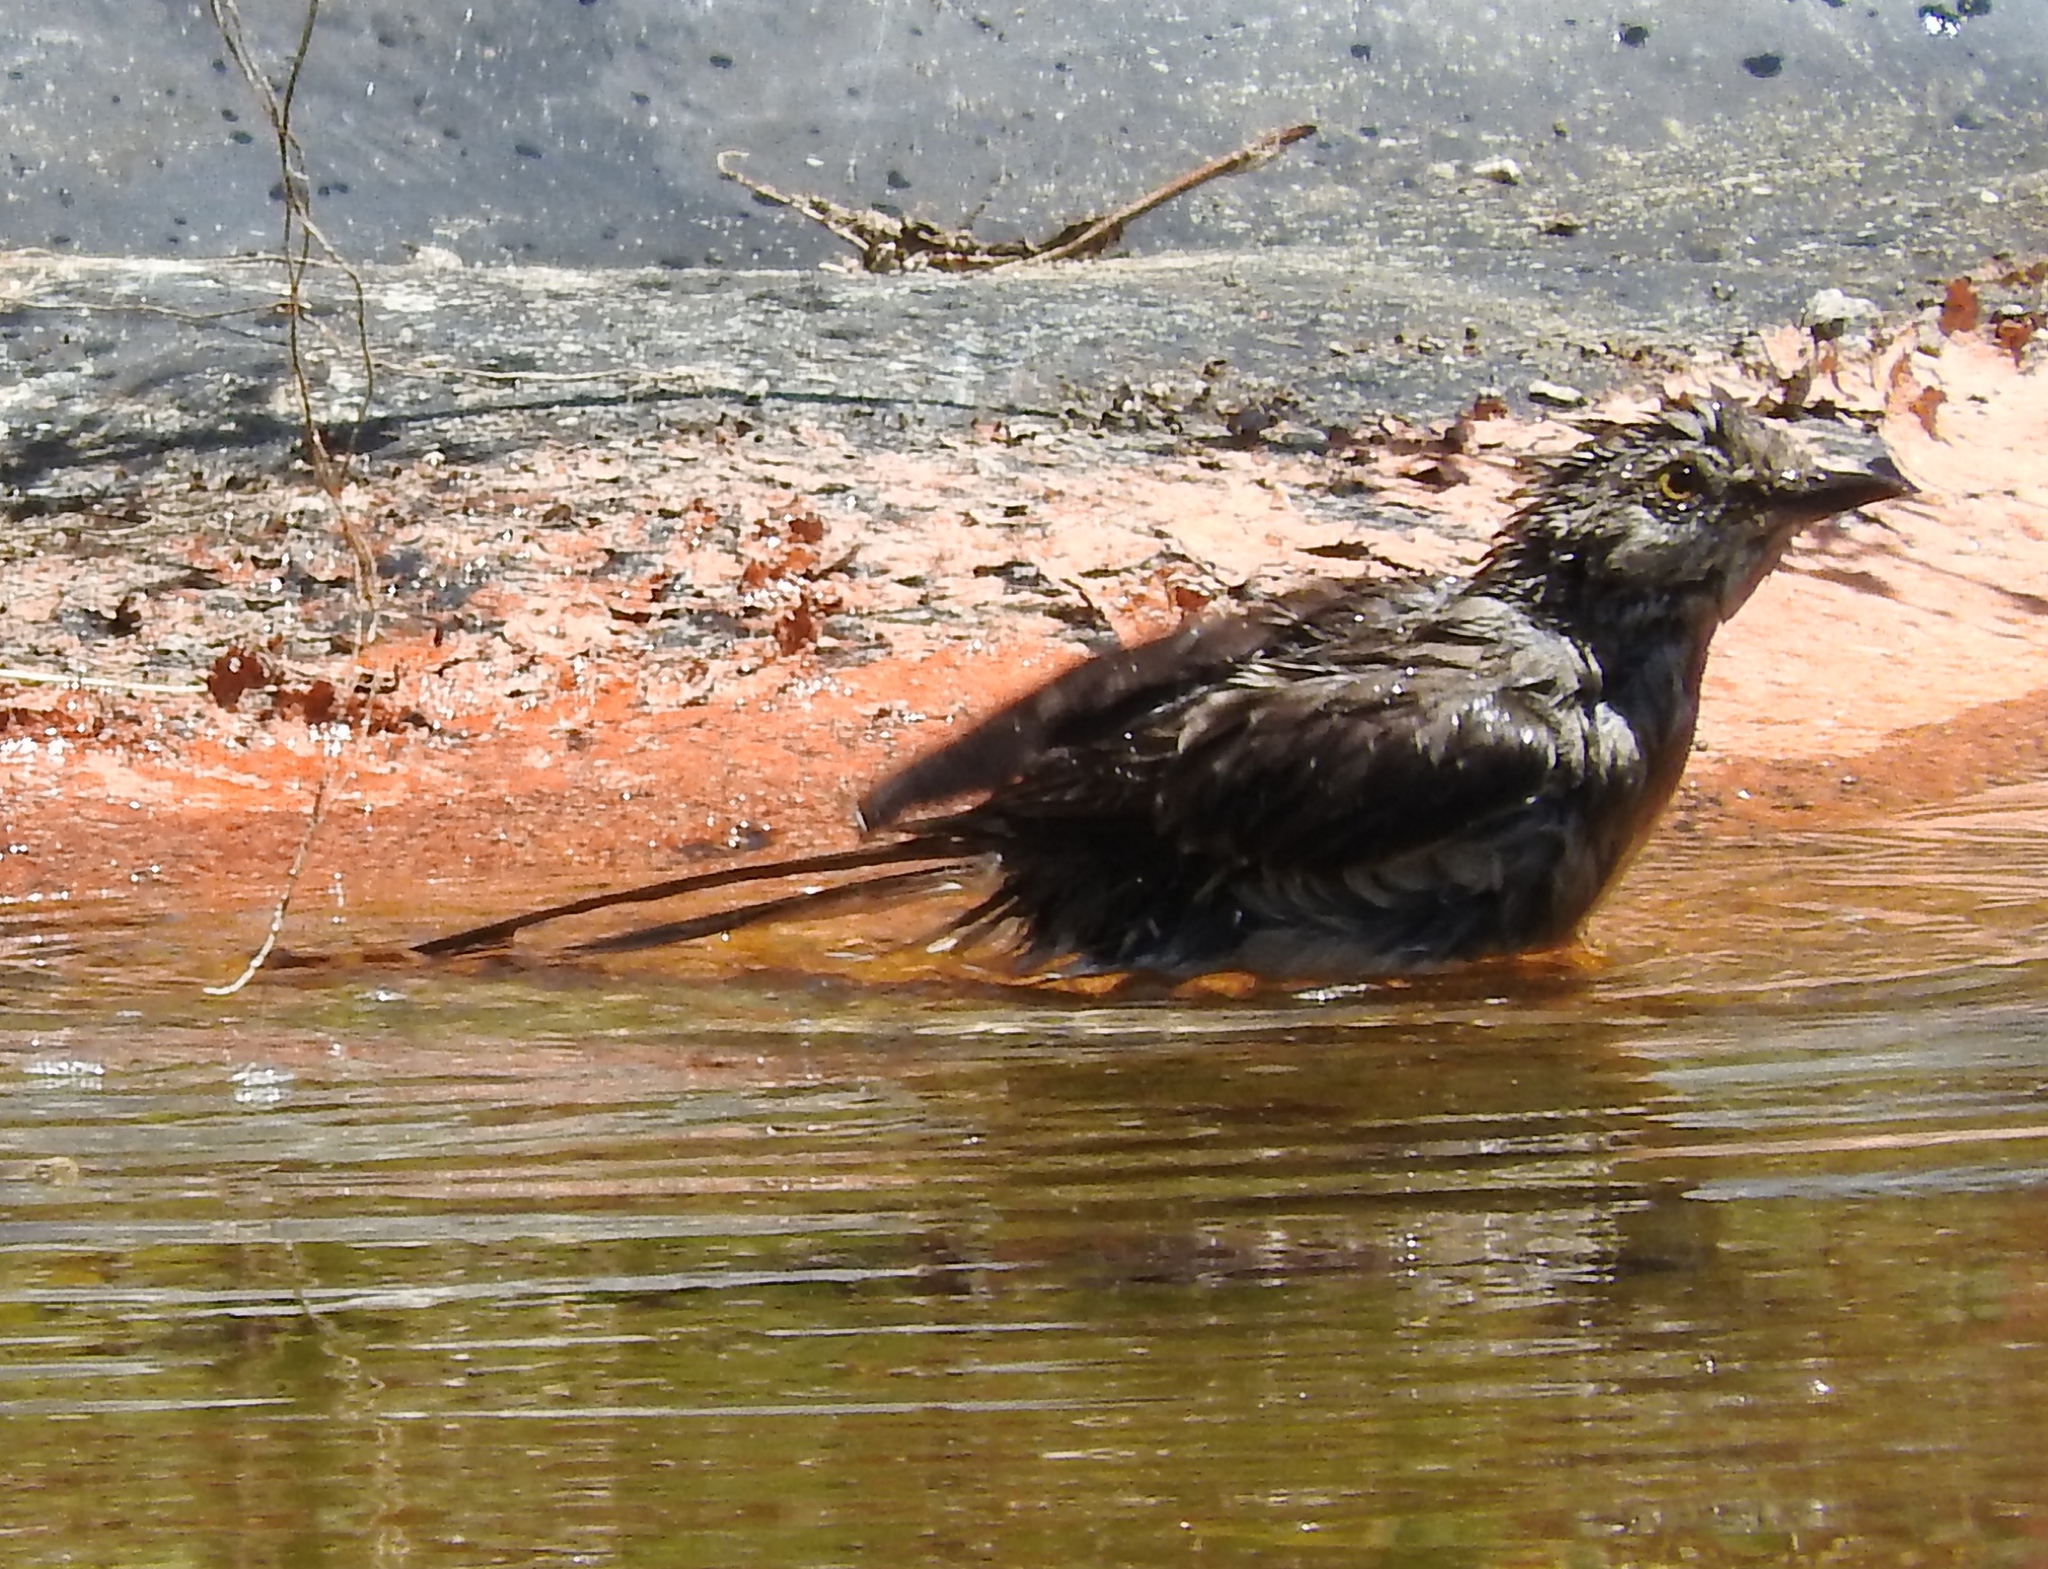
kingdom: Animalia
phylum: Chordata
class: Aves
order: Passeriformes
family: Mimidae
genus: Mimus
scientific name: Mimus polyglottos
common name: Northern mockingbird
